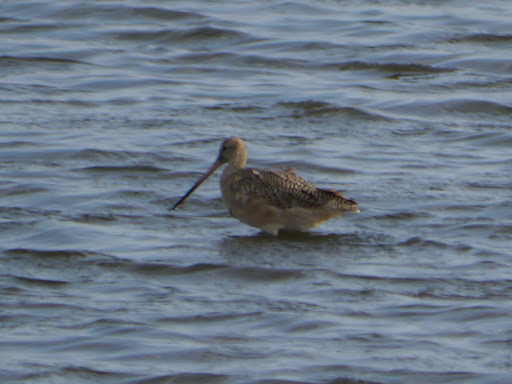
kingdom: Animalia
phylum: Chordata
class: Aves
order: Charadriiformes
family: Scolopacidae
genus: Limosa
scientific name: Limosa fedoa
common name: Marbled godwit
